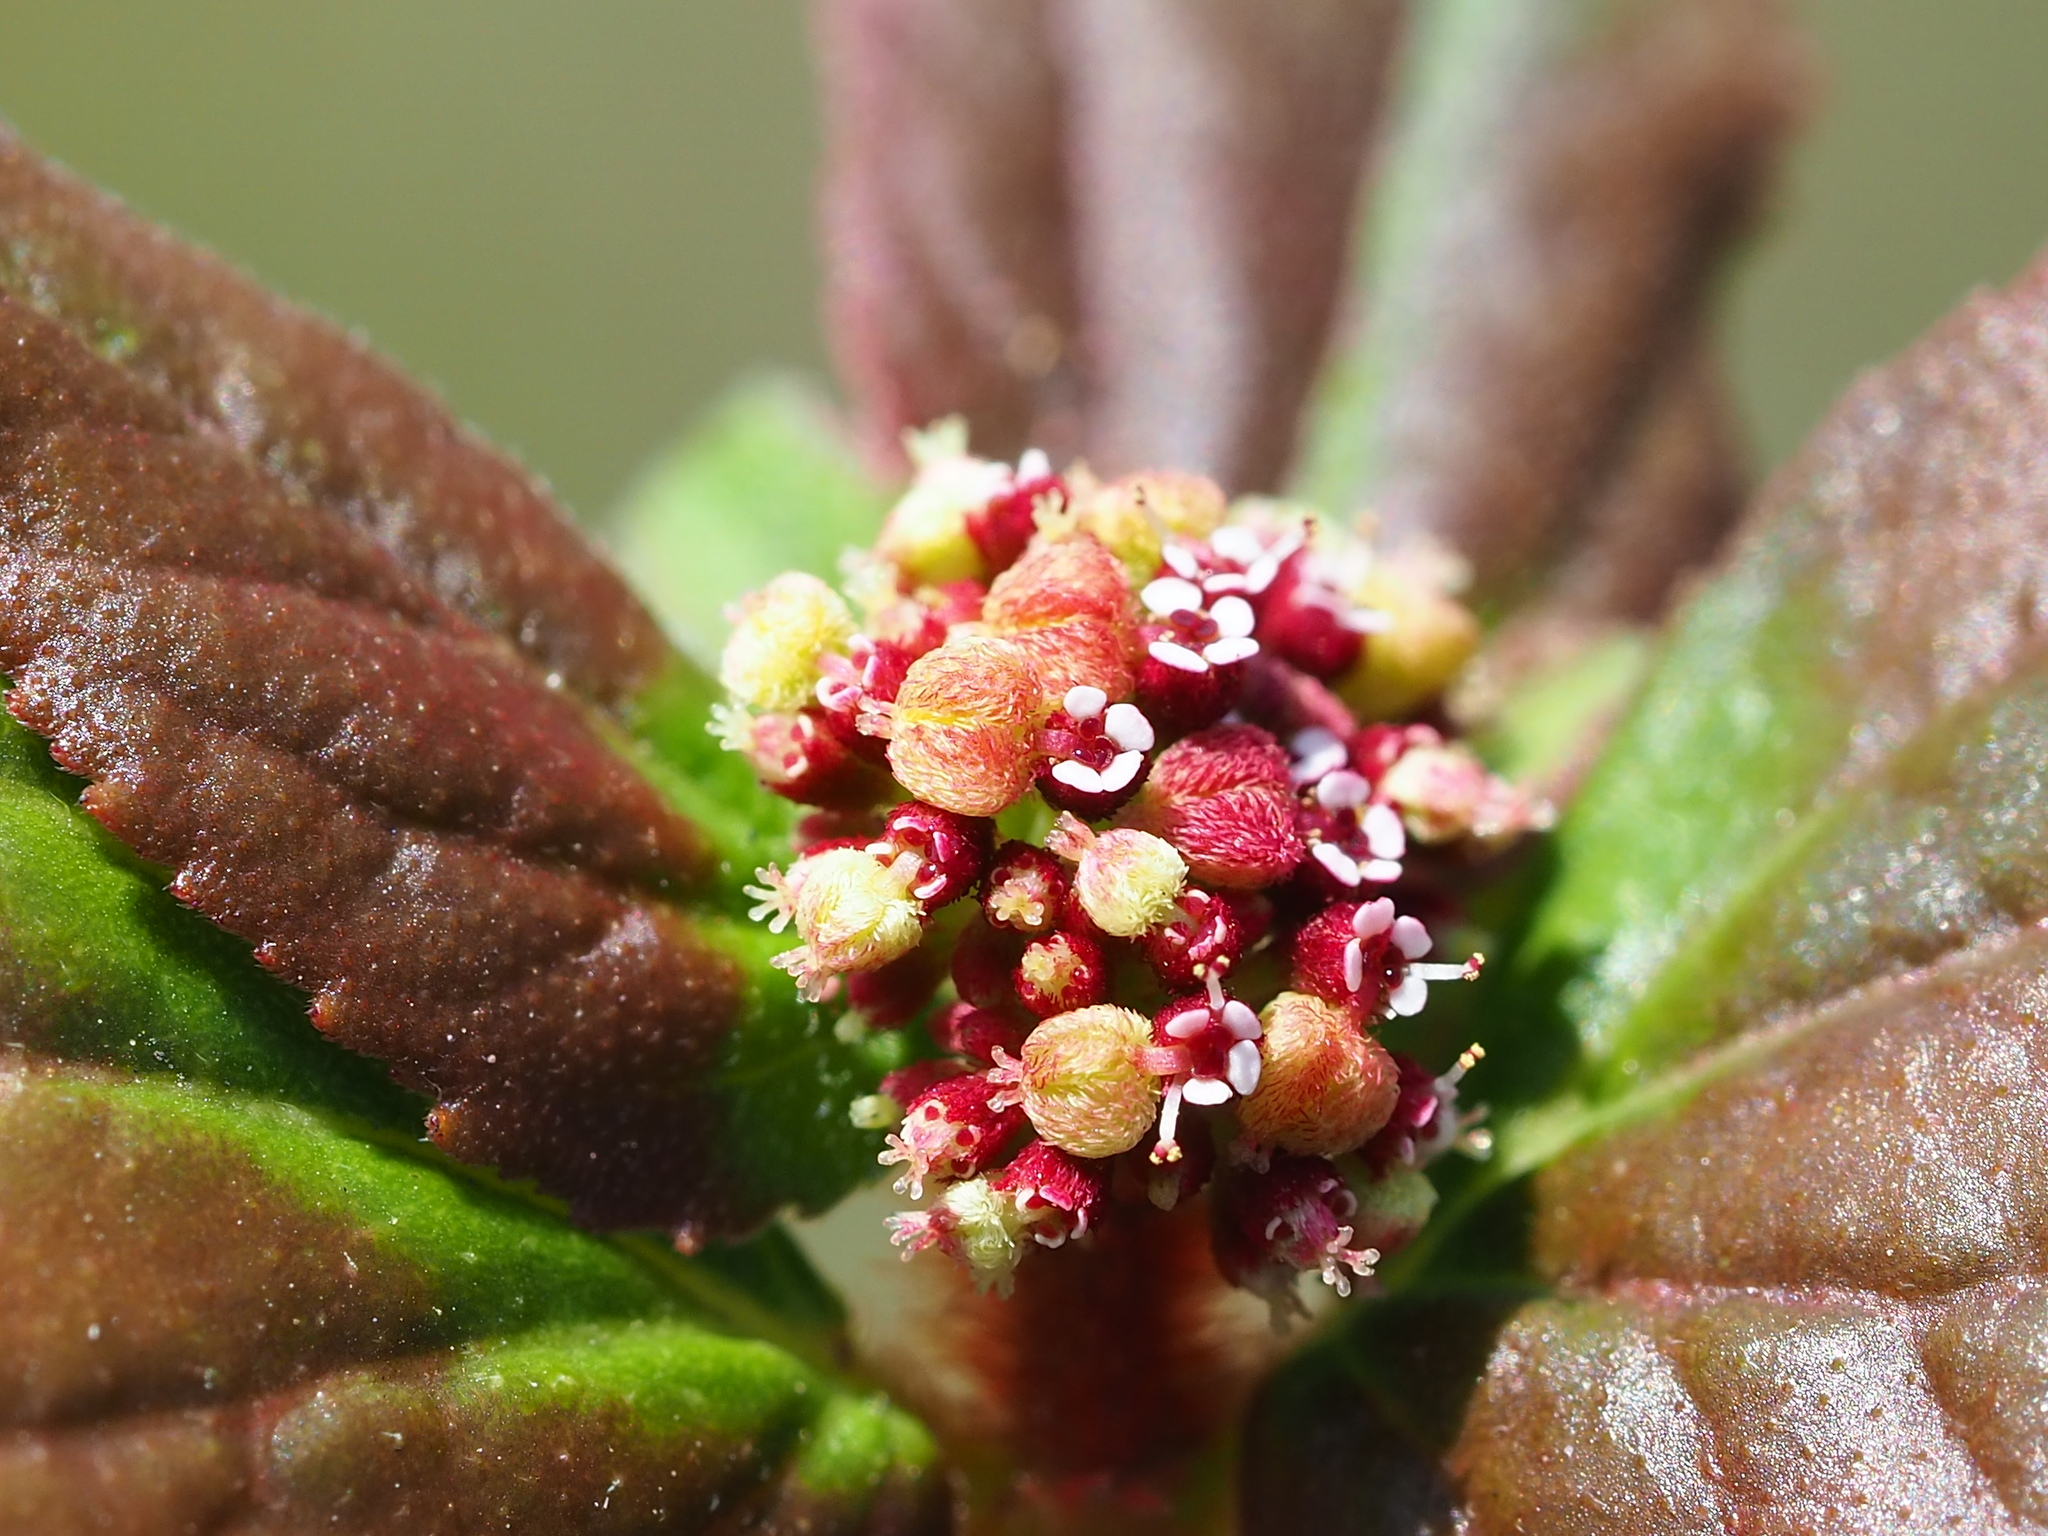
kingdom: Plantae
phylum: Tracheophyta
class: Magnoliopsida
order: Malpighiales
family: Euphorbiaceae
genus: Euphorbia
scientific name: Euphorbia hirta
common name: Pillpod sandmat
